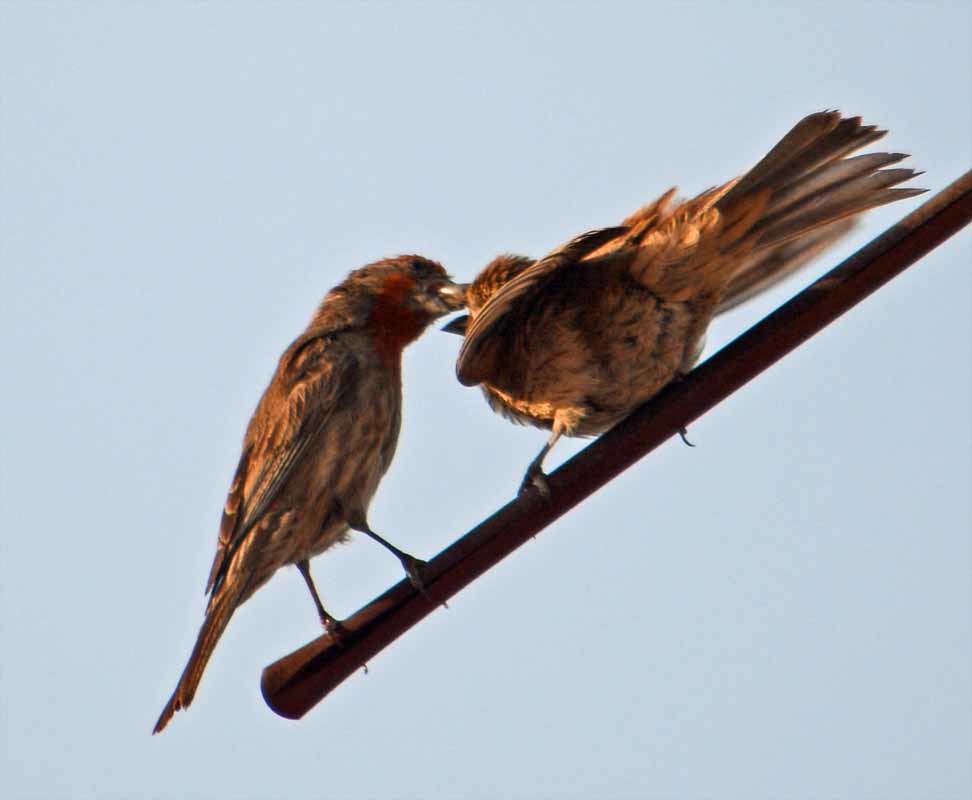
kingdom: Animalia
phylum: Chordata
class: Aves
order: Passeriformes
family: Fringillidae
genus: Haemorhous
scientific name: Haemorhous mexicanus
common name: House finch
